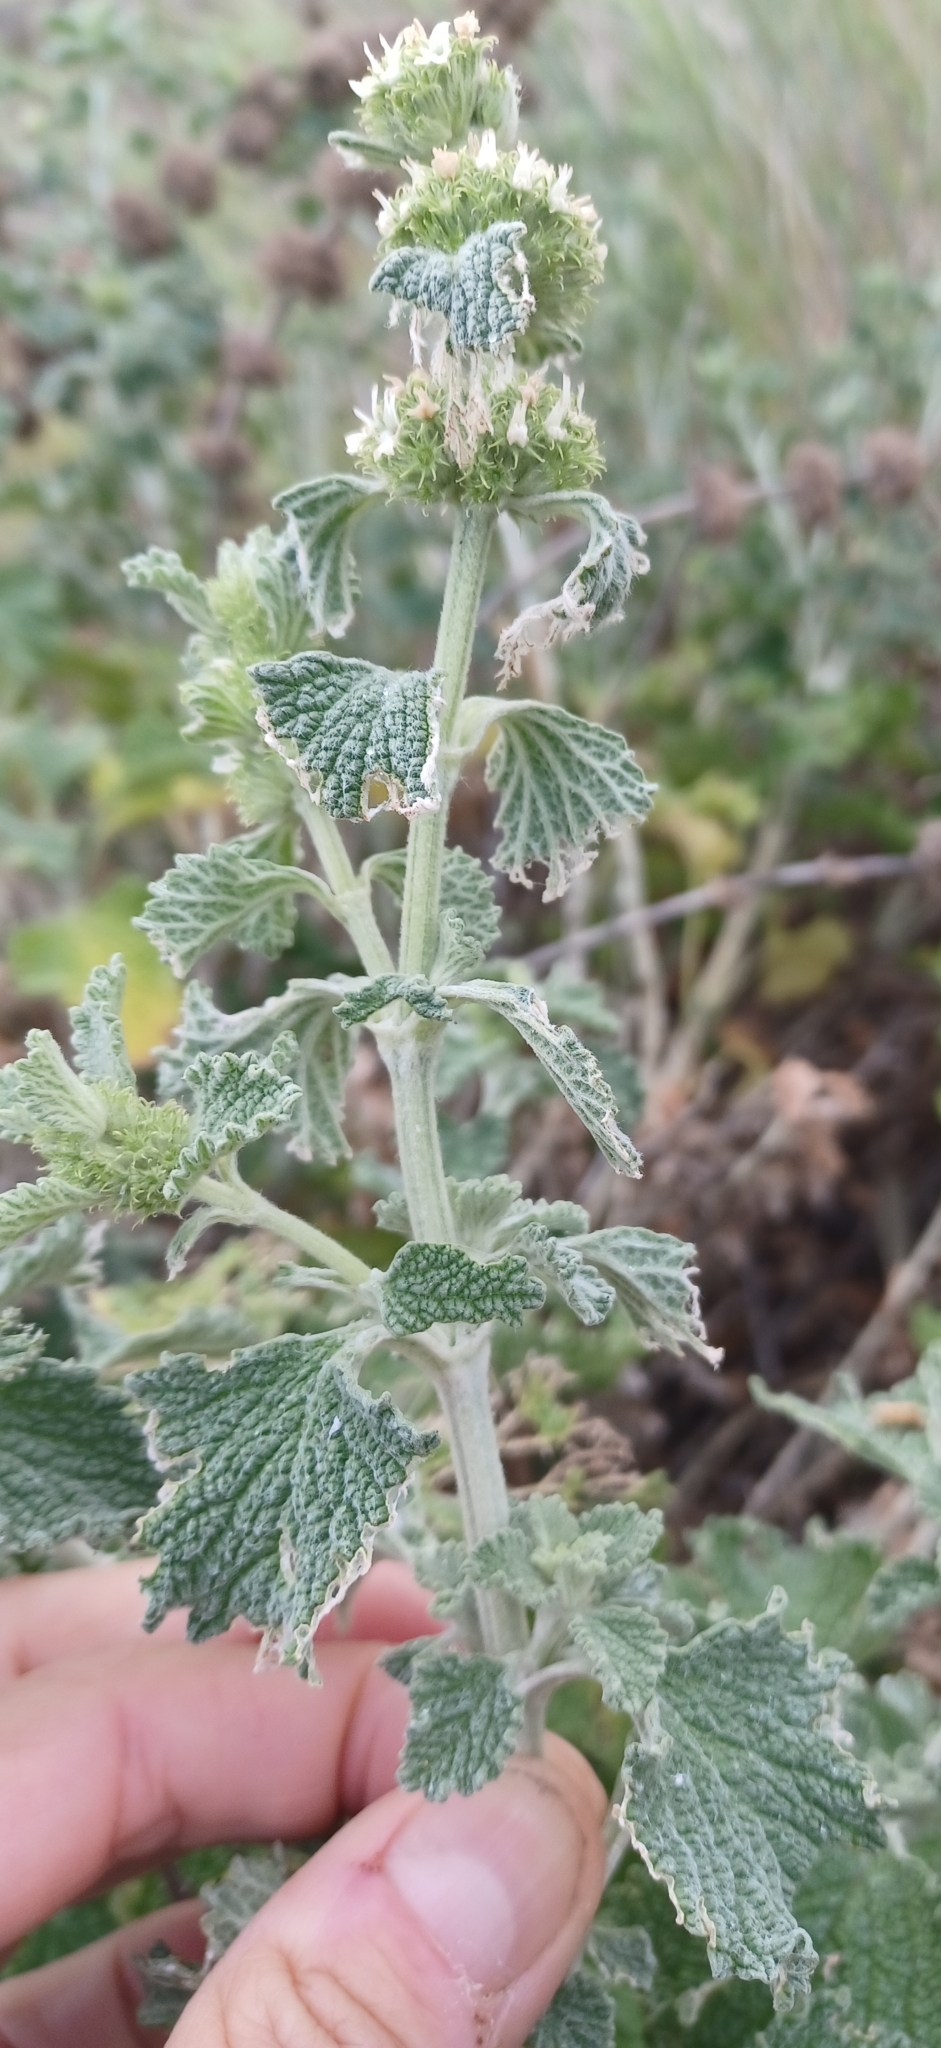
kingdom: Plantae
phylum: Tracheophyta
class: Magnoliopsida
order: Lamiales
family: Lamiaceae
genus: Marrubium
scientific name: Marrubium vulgare
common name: Horehound
